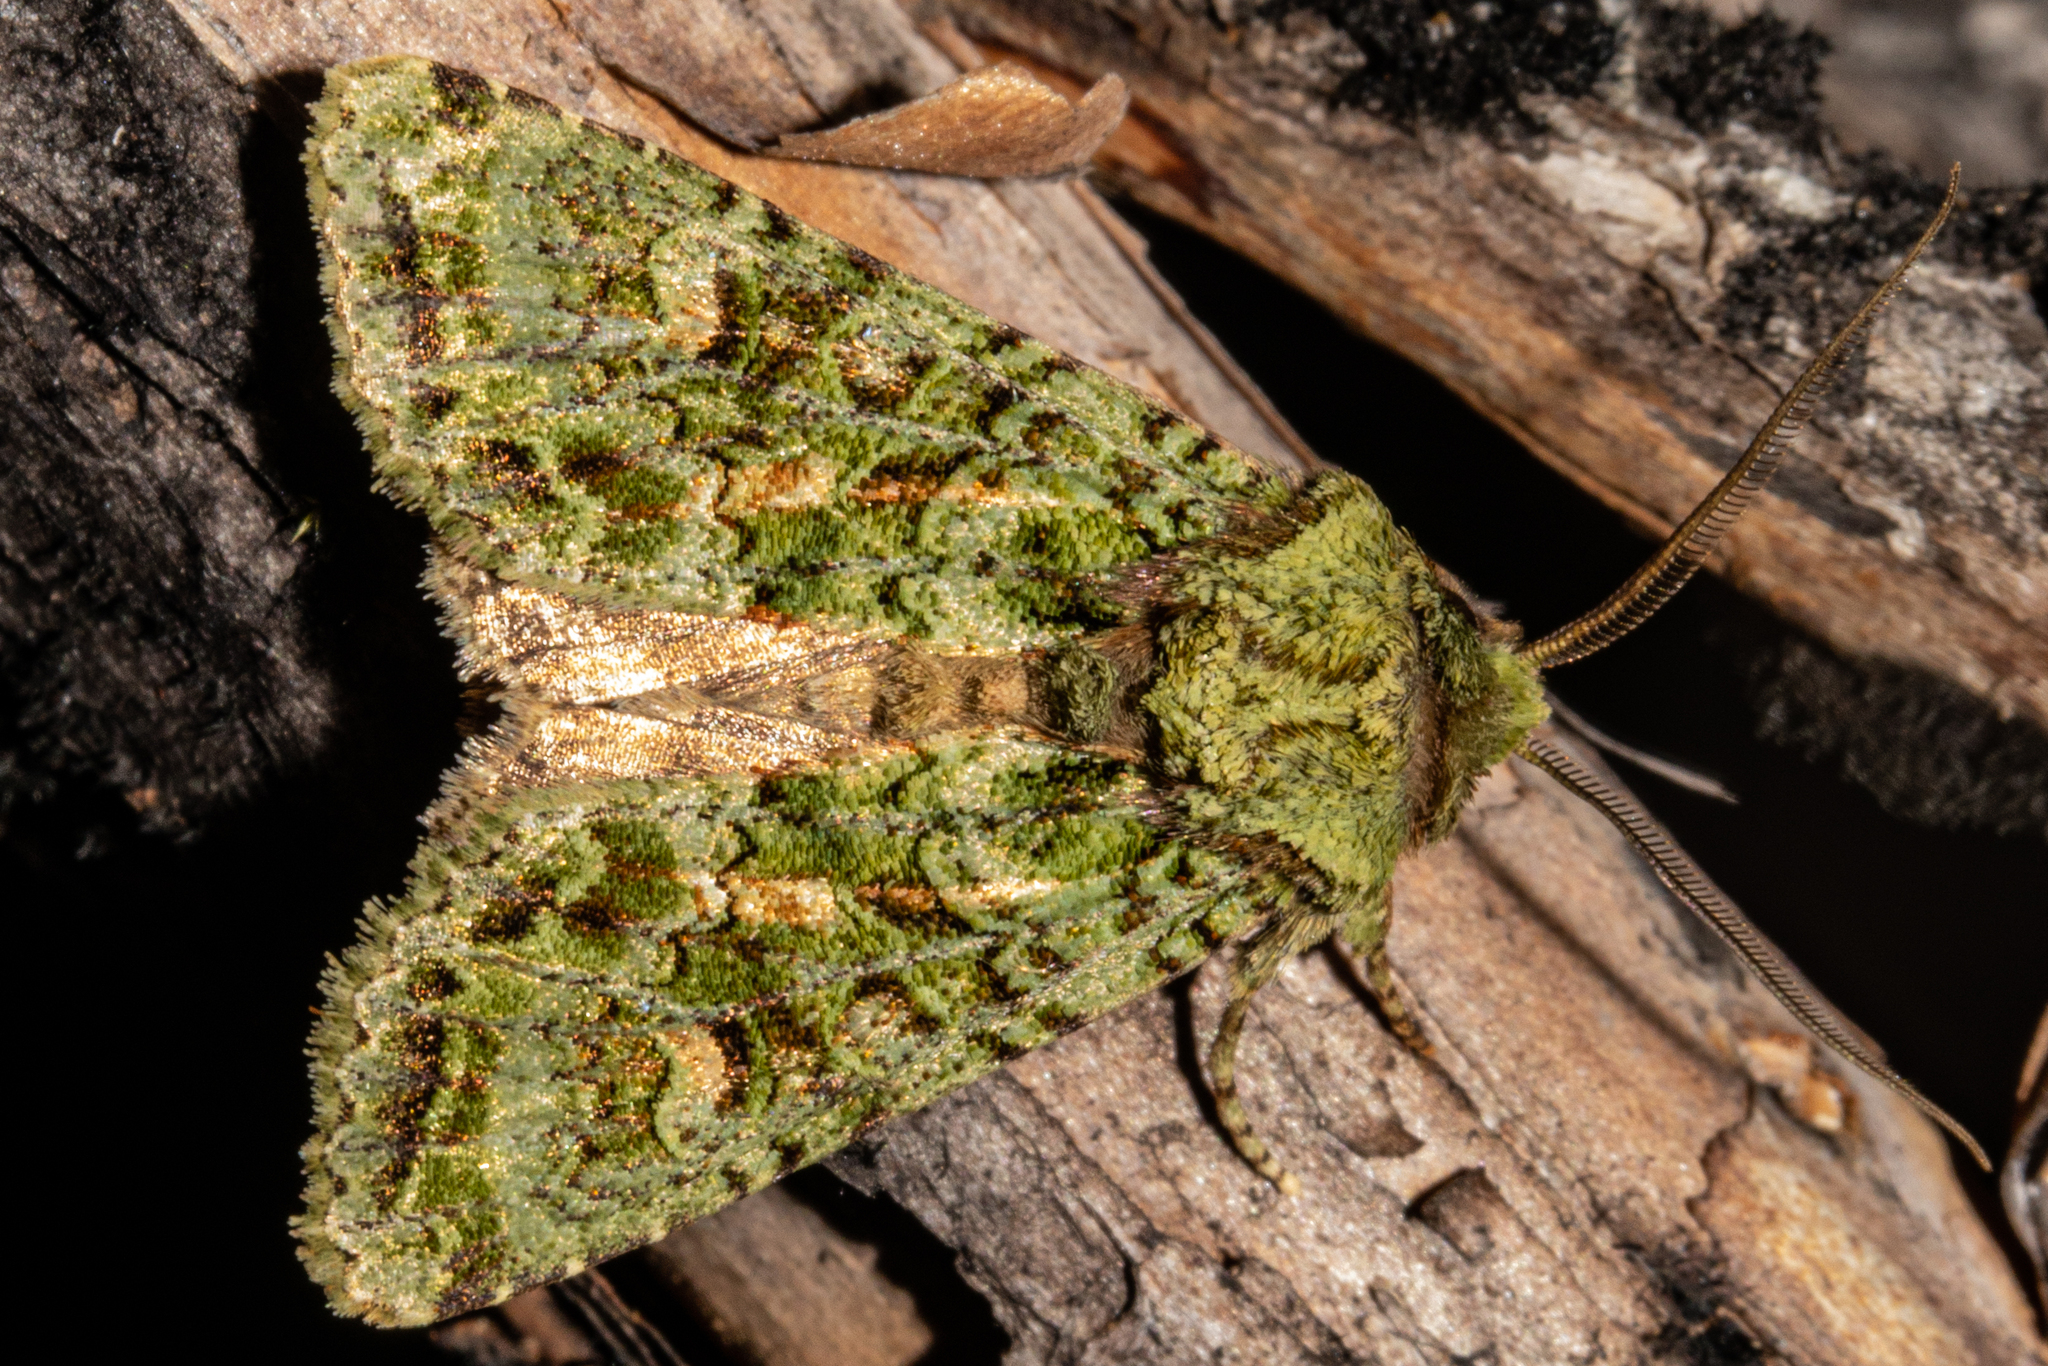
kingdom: Animalia
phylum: Arthropoda
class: Insecta
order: Lepidoptera
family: Noctuidae
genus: Ichneutica
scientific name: Ichneutica
